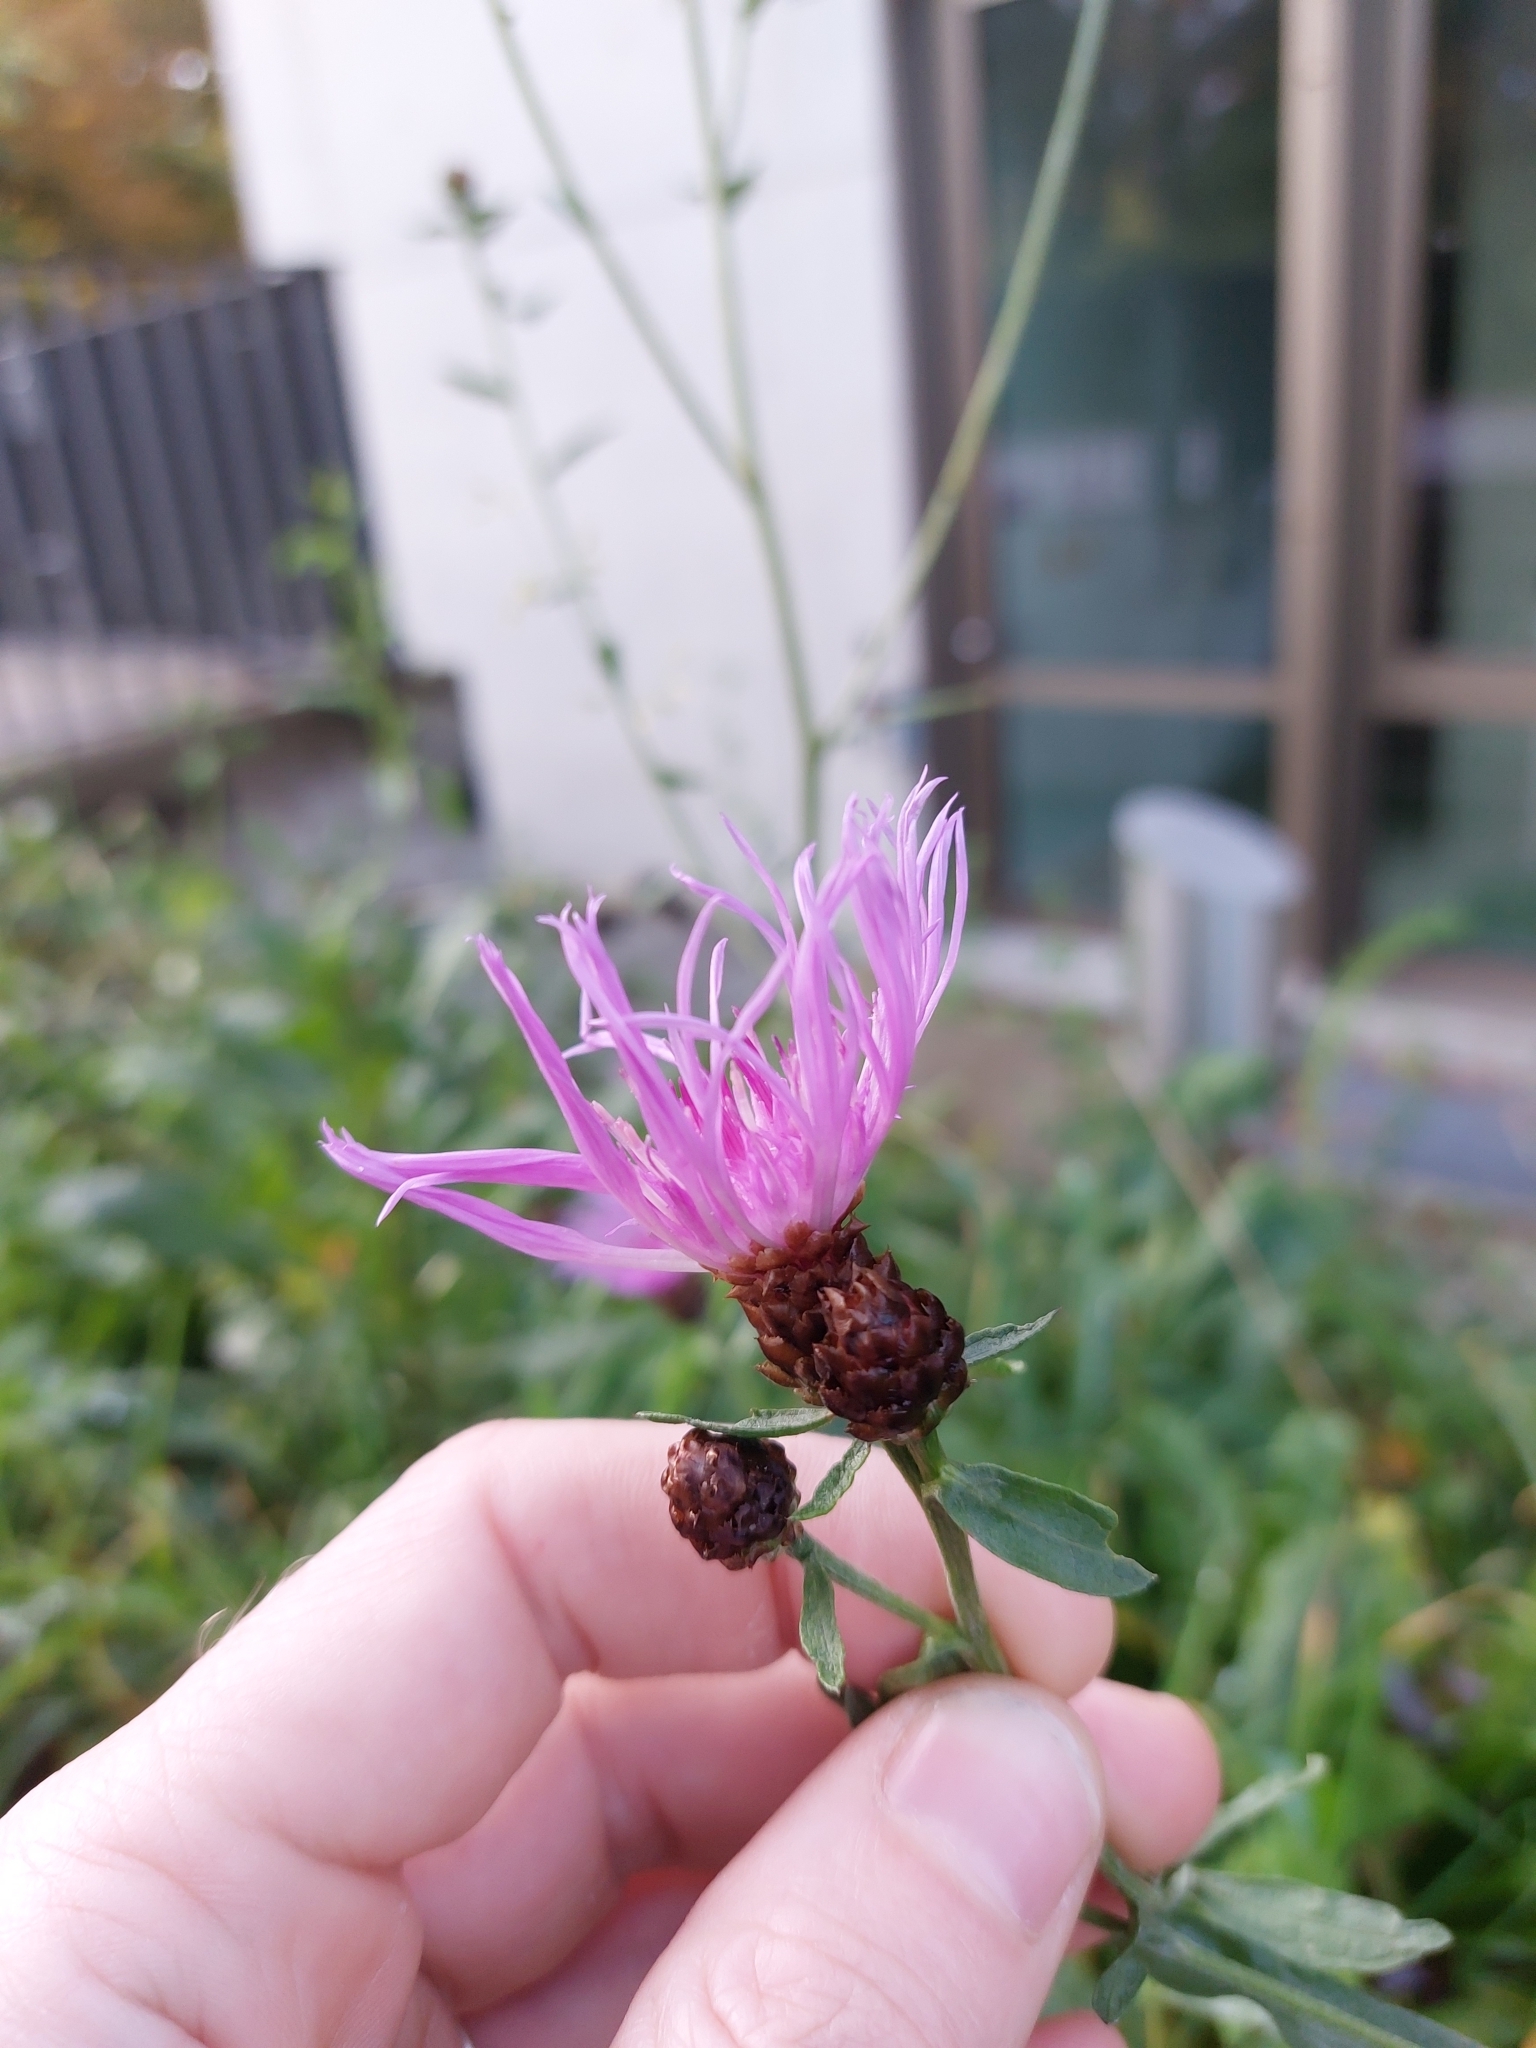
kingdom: Plantae
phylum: Tracheophyta
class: Magnoliopsida
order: Asterales
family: Asteraceae
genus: Centaurea
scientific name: Centaurea jacea
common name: Brown knapweed
